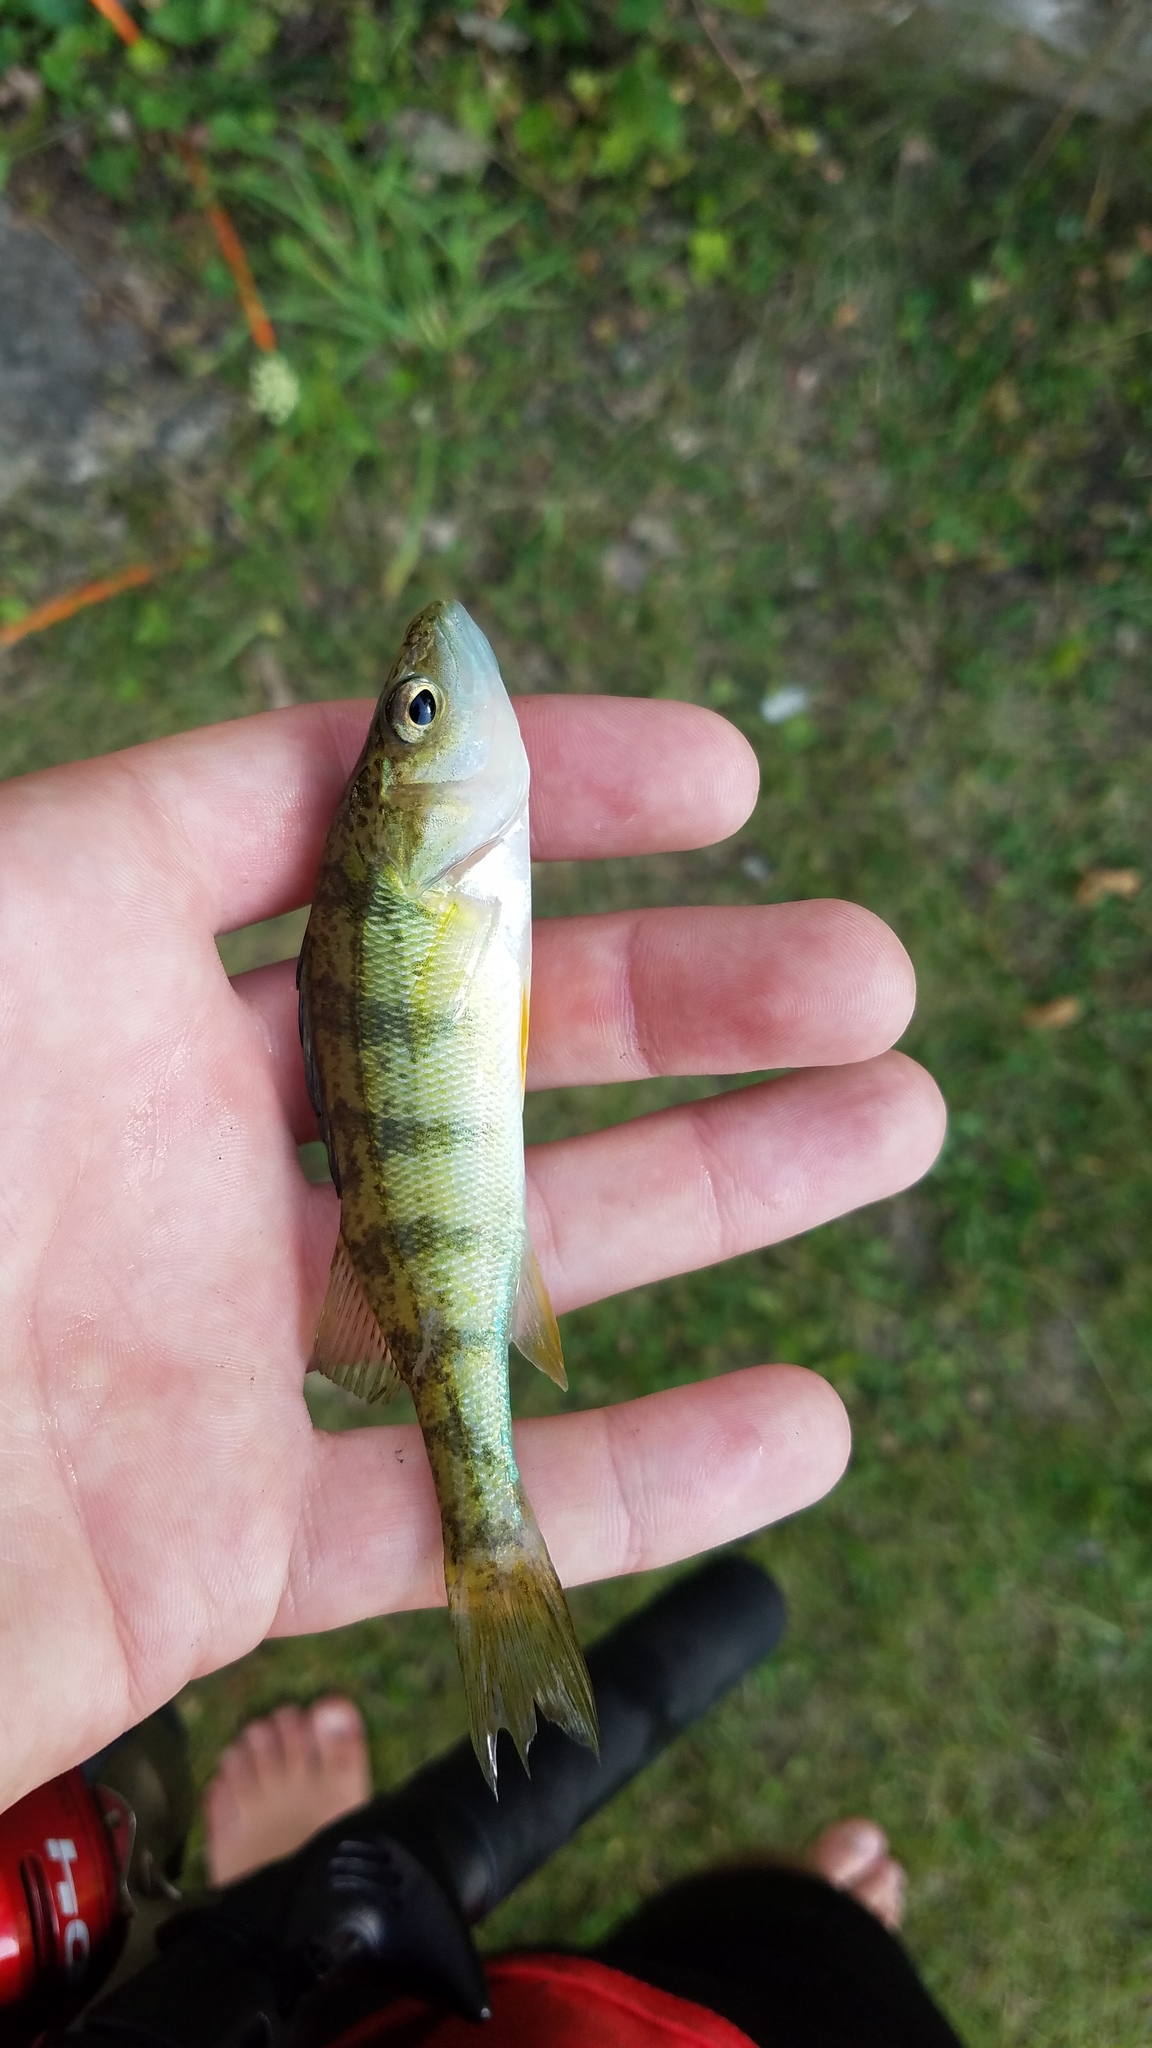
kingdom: Animalia
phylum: Chordata
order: Perciformes
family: Percidae
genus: Perca
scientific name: Perca flavescens
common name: Yellow perch
